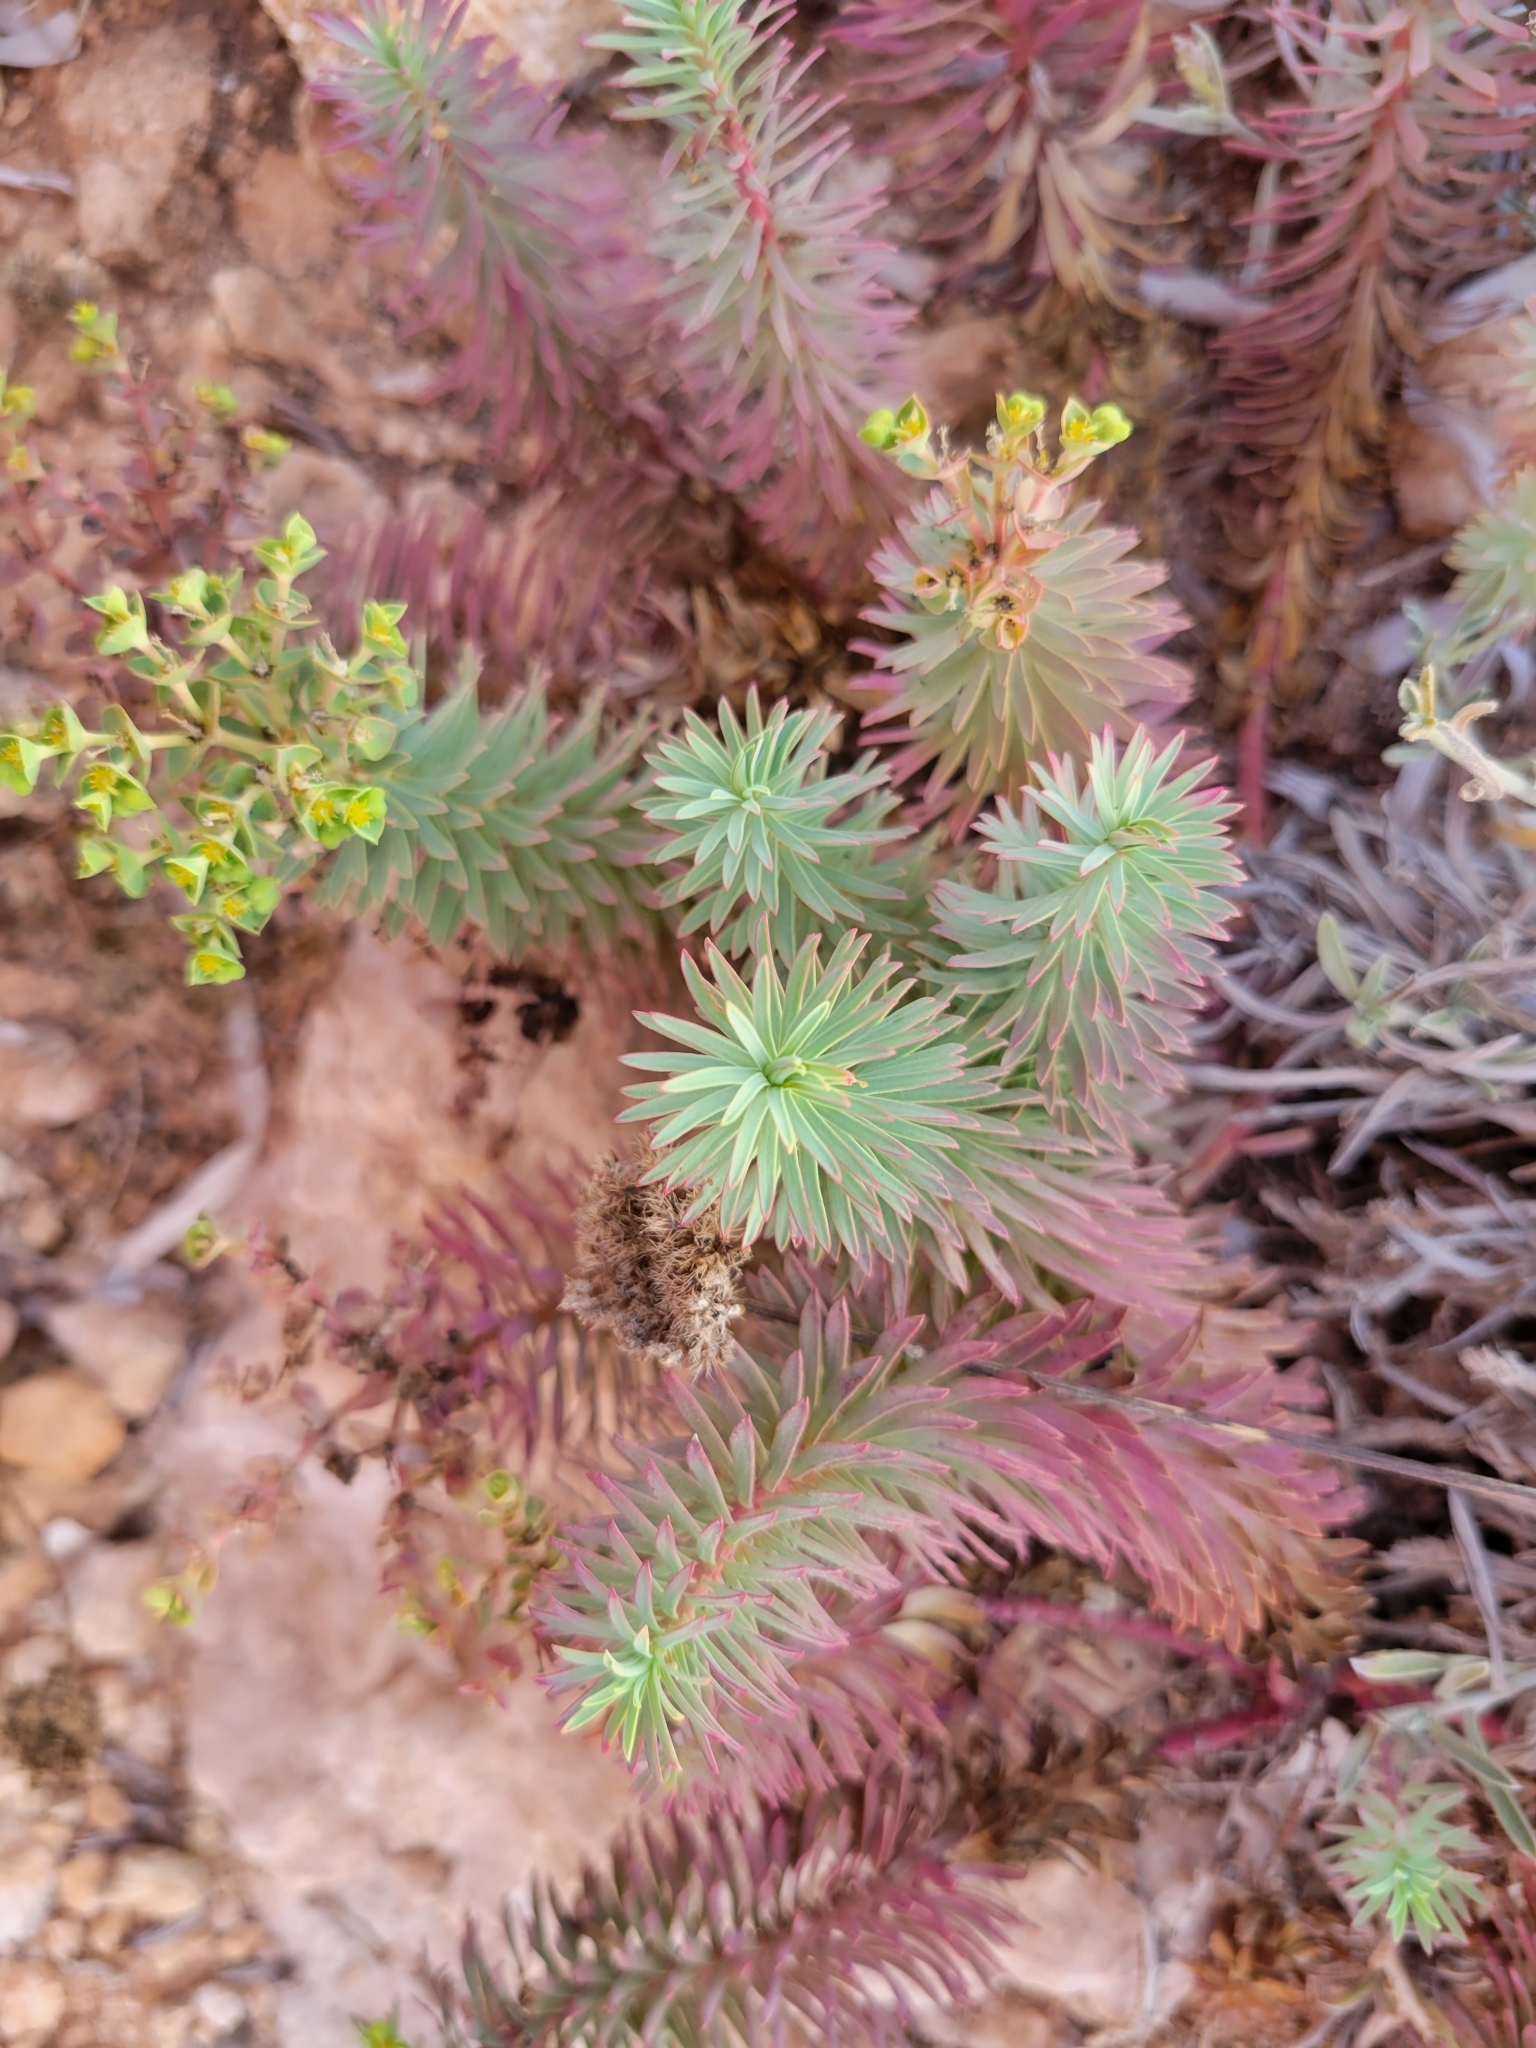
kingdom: Plantae
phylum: Tracheophyta
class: Magnoliopsida
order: Malpighiales
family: Euphorbiaceae
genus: Euphorbia
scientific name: Euphorbia segetalis
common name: Corn spurge
